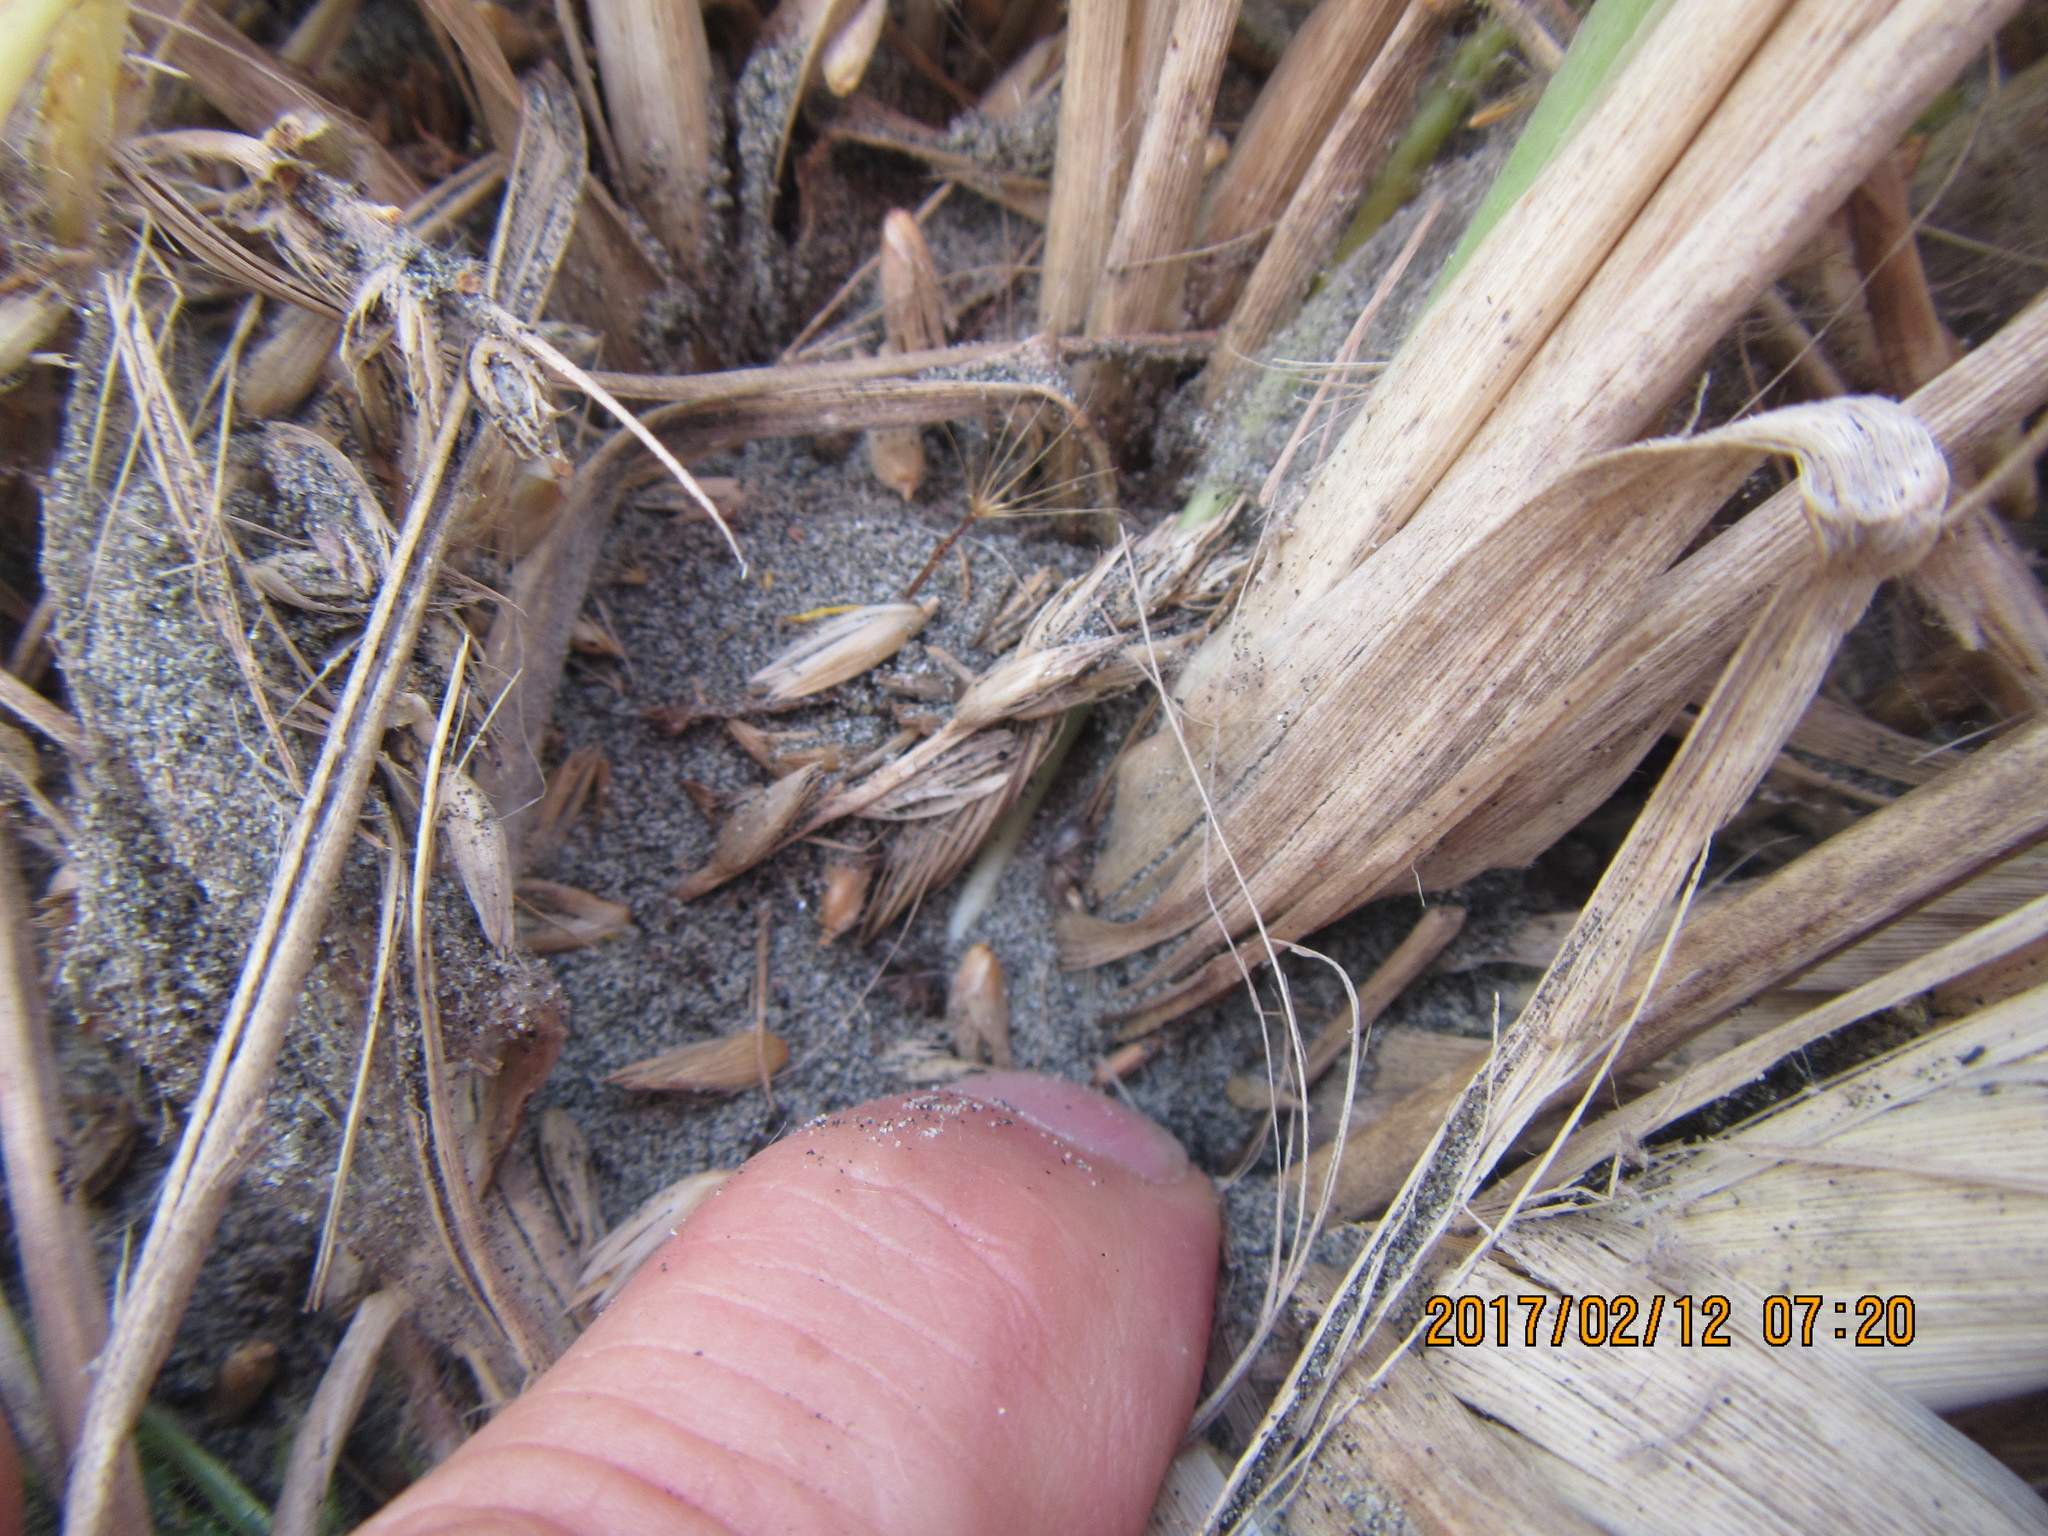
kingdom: Animalia
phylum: Arthropoda
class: Arachnida
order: Araneae
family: Gnaphosidae
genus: Anzacia
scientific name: Anzacia gemmea
